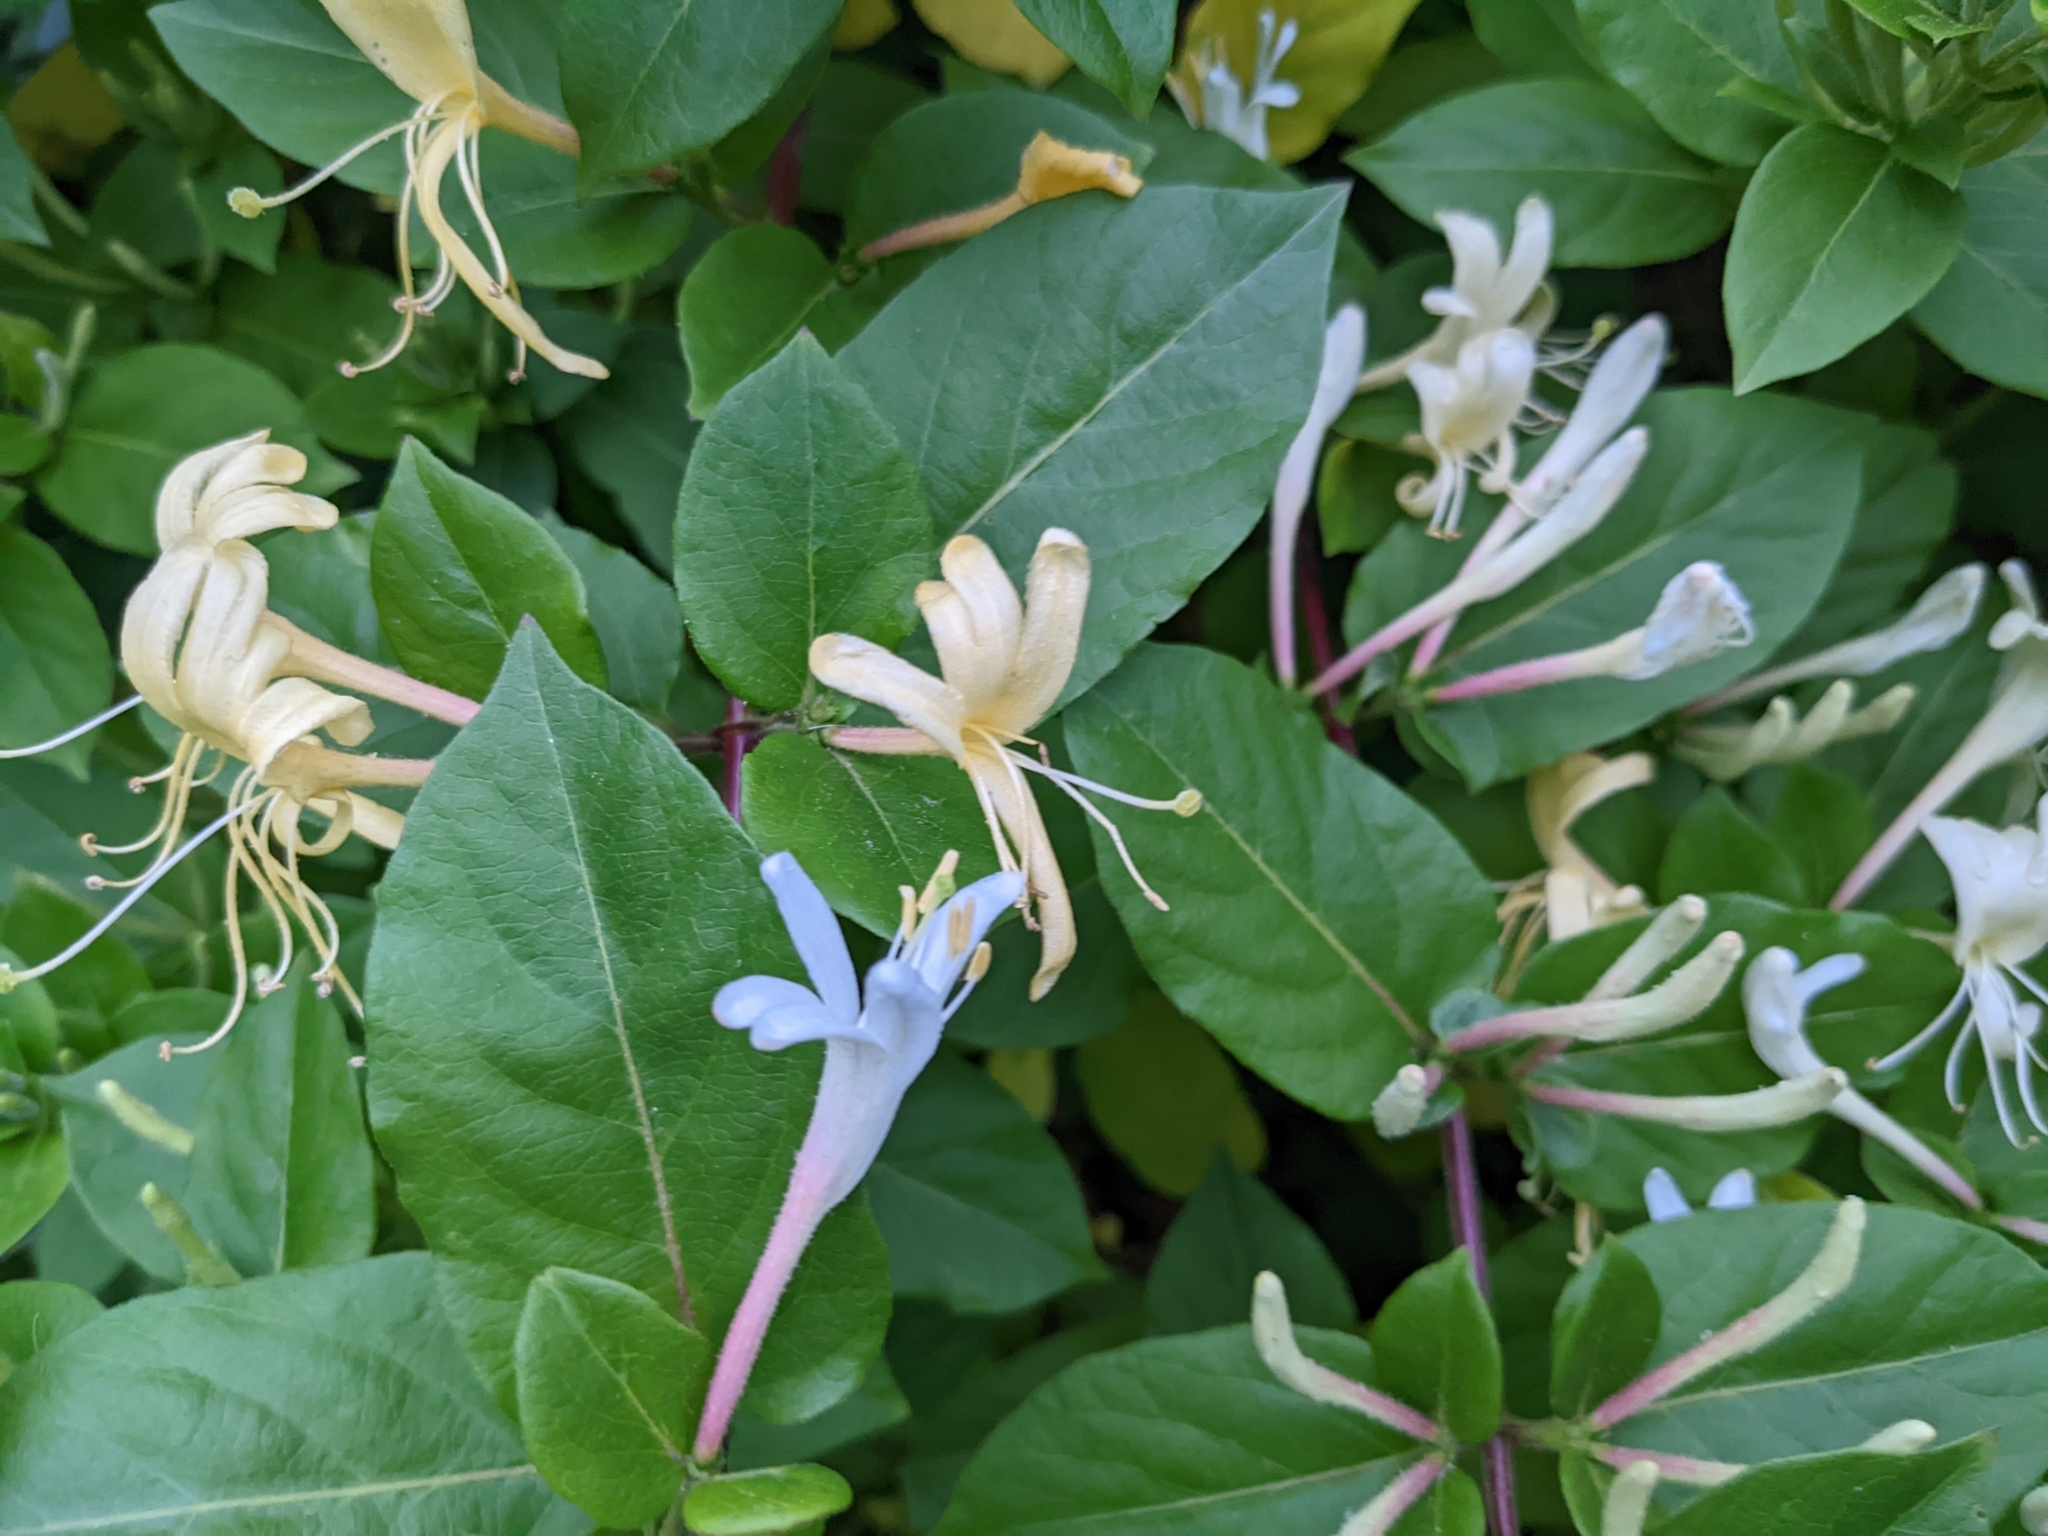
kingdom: Plantae
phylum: Tracheophyta
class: Magnoliopsida
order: Dipsacales
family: Caprifoliaceae
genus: Lonicera
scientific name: Lonicera japonica
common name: Japanese honeysuckle
